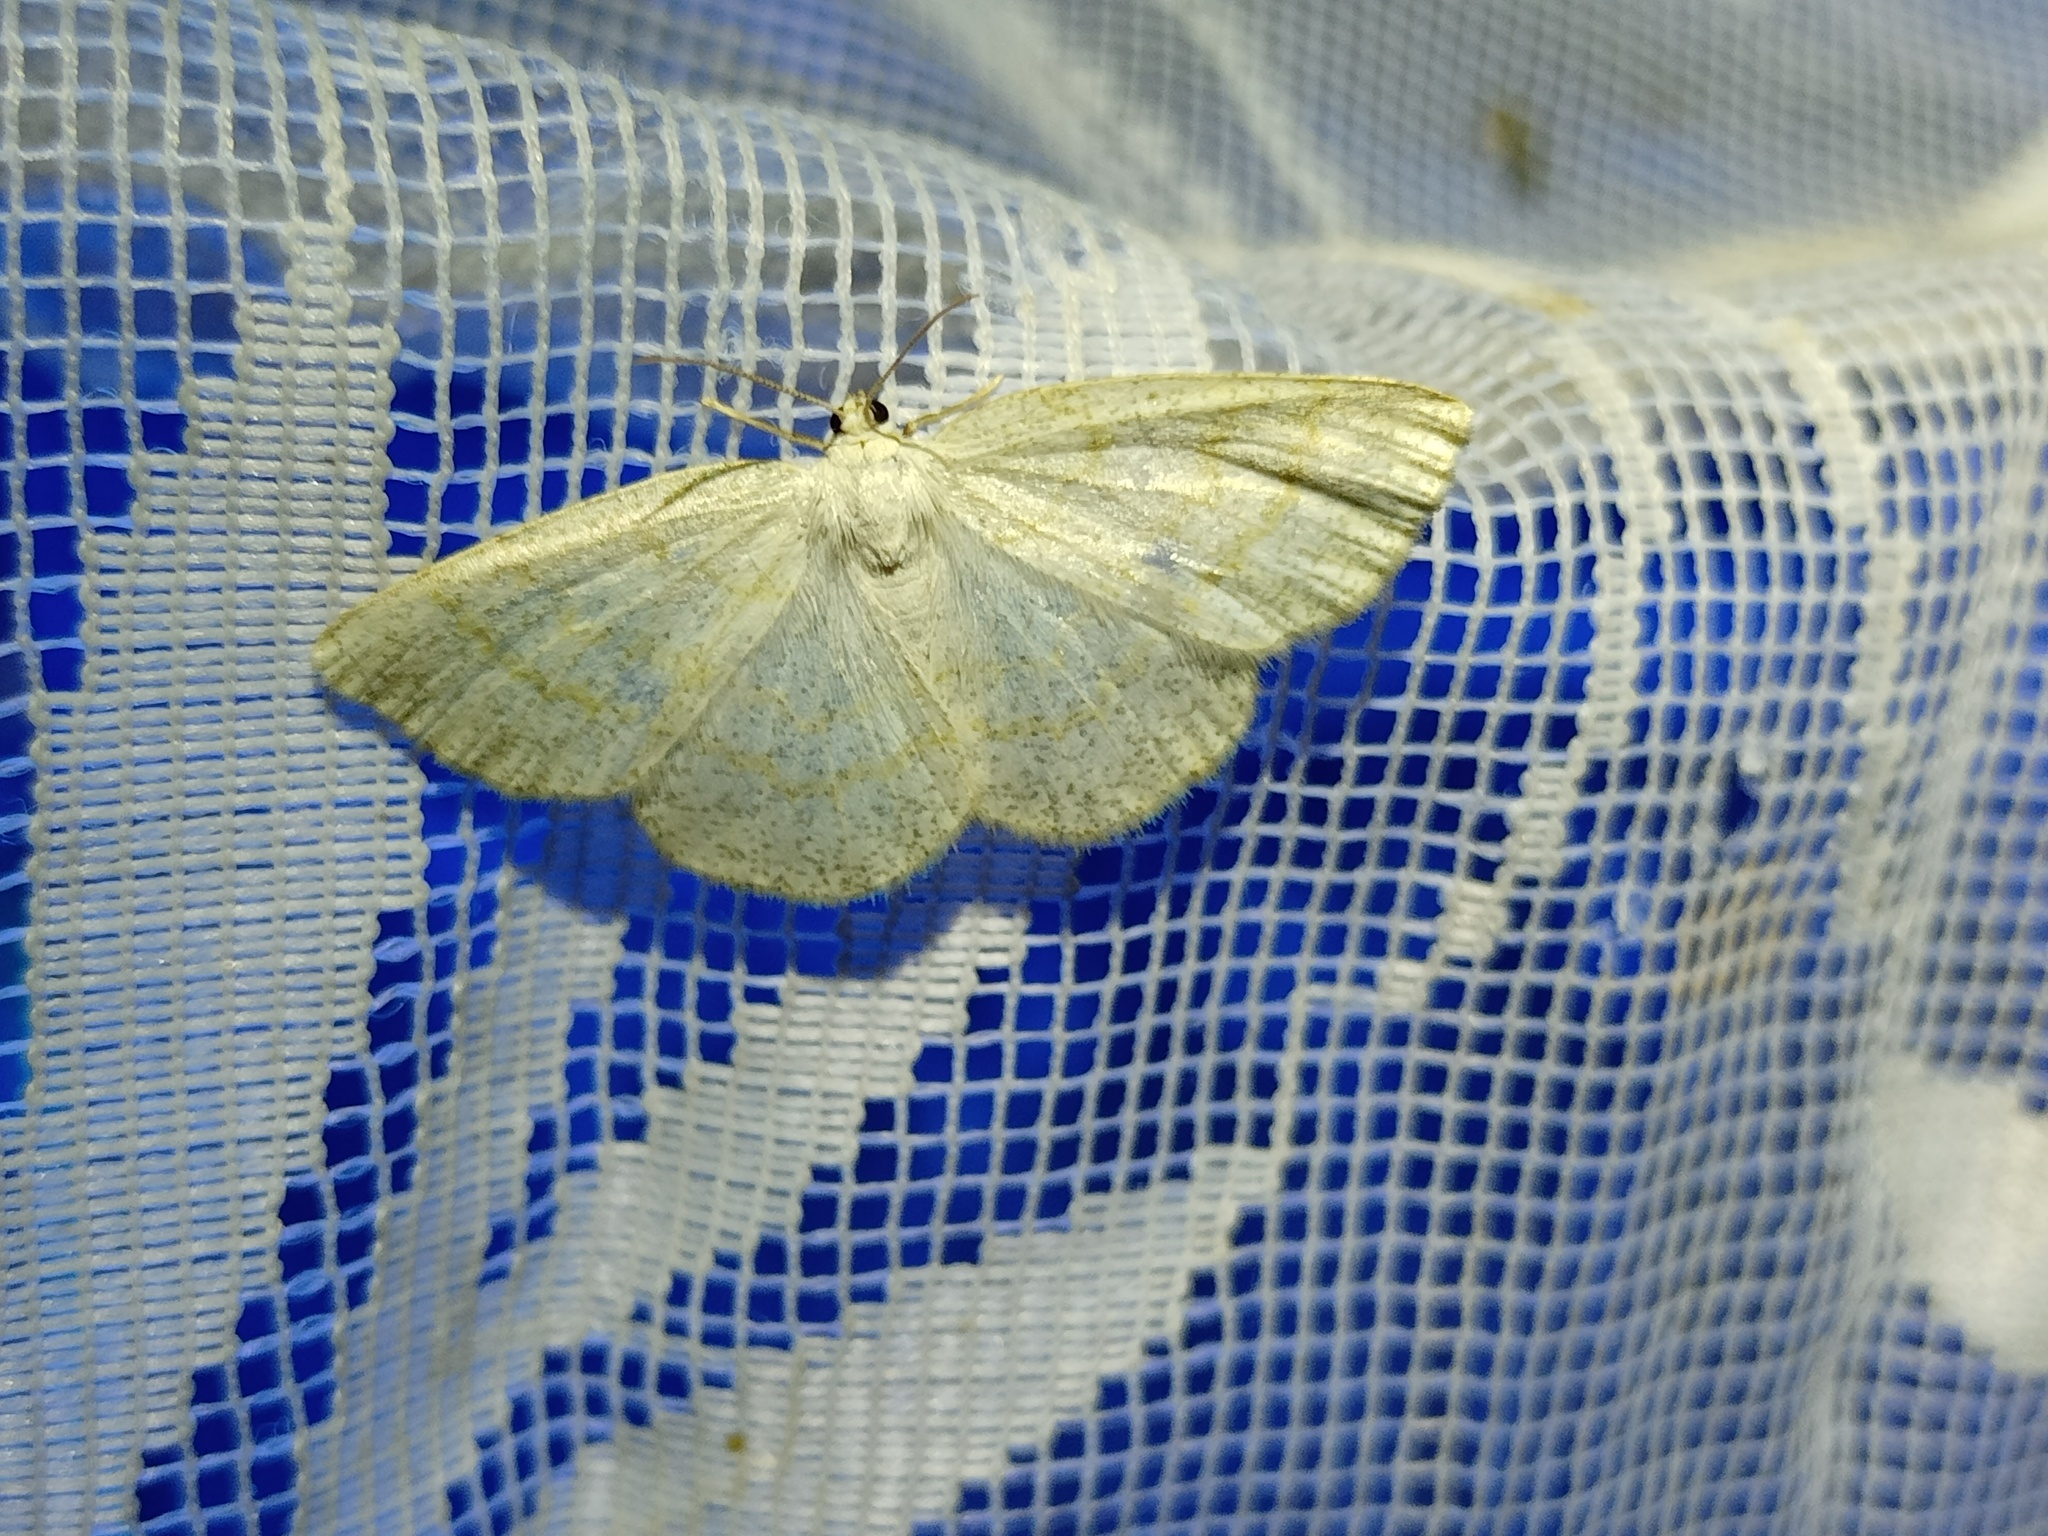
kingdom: Animalia
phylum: Arthropoda
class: Insecta
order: Lepidoptera
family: Geometridae
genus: Cabera
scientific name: Cabera exanthemata
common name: Common wave
